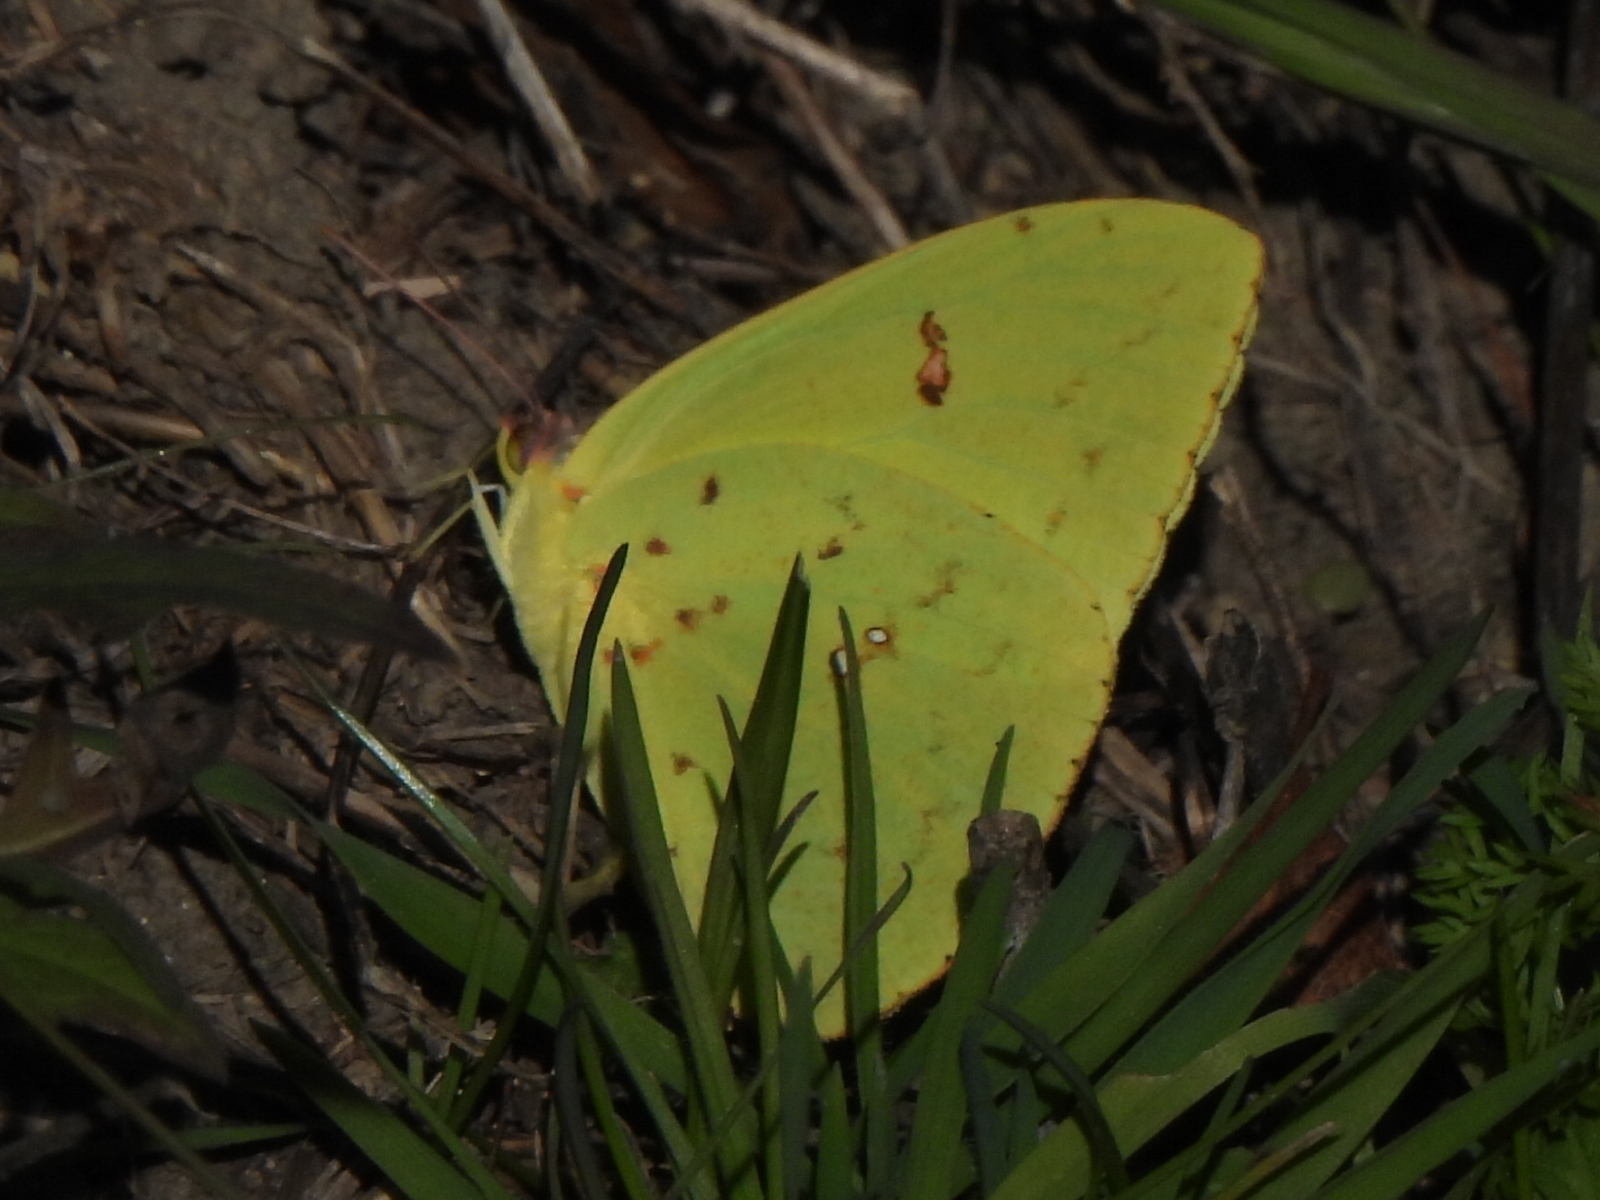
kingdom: Animalia
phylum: Arthropoda
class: Insecta
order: Lepidoptera
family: Pieridae
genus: Phoebis
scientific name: Phoebis sennae
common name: Cloudless sulphur
